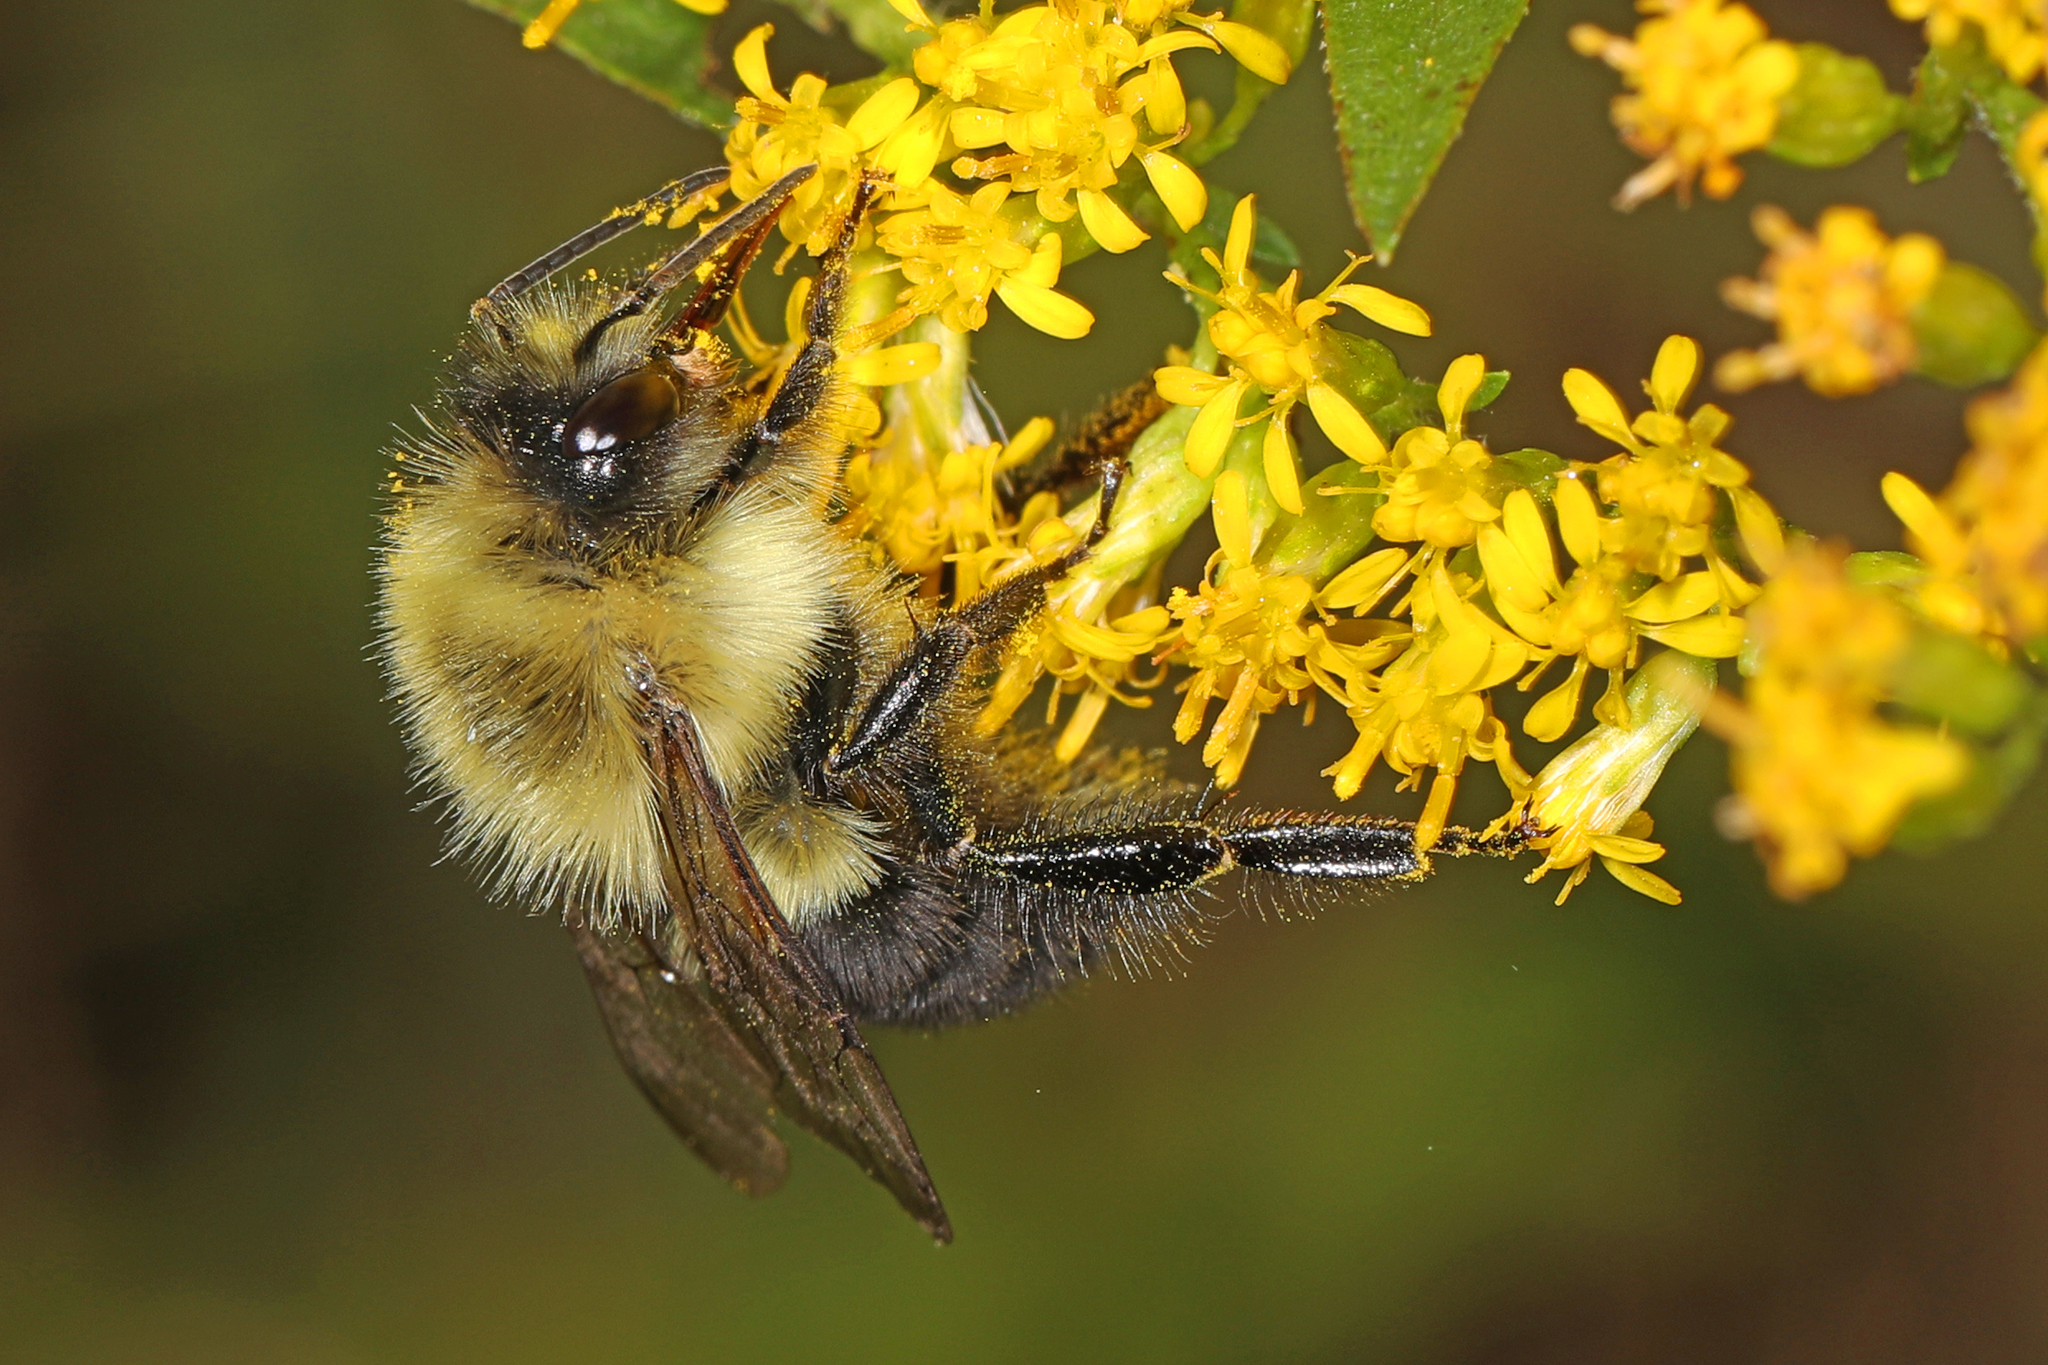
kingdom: Animalia
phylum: Arthropoda
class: Insecta
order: Hymenoptera
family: Apidae
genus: Bombus
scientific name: Bombus impatiens
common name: Common eastern bumble bee
